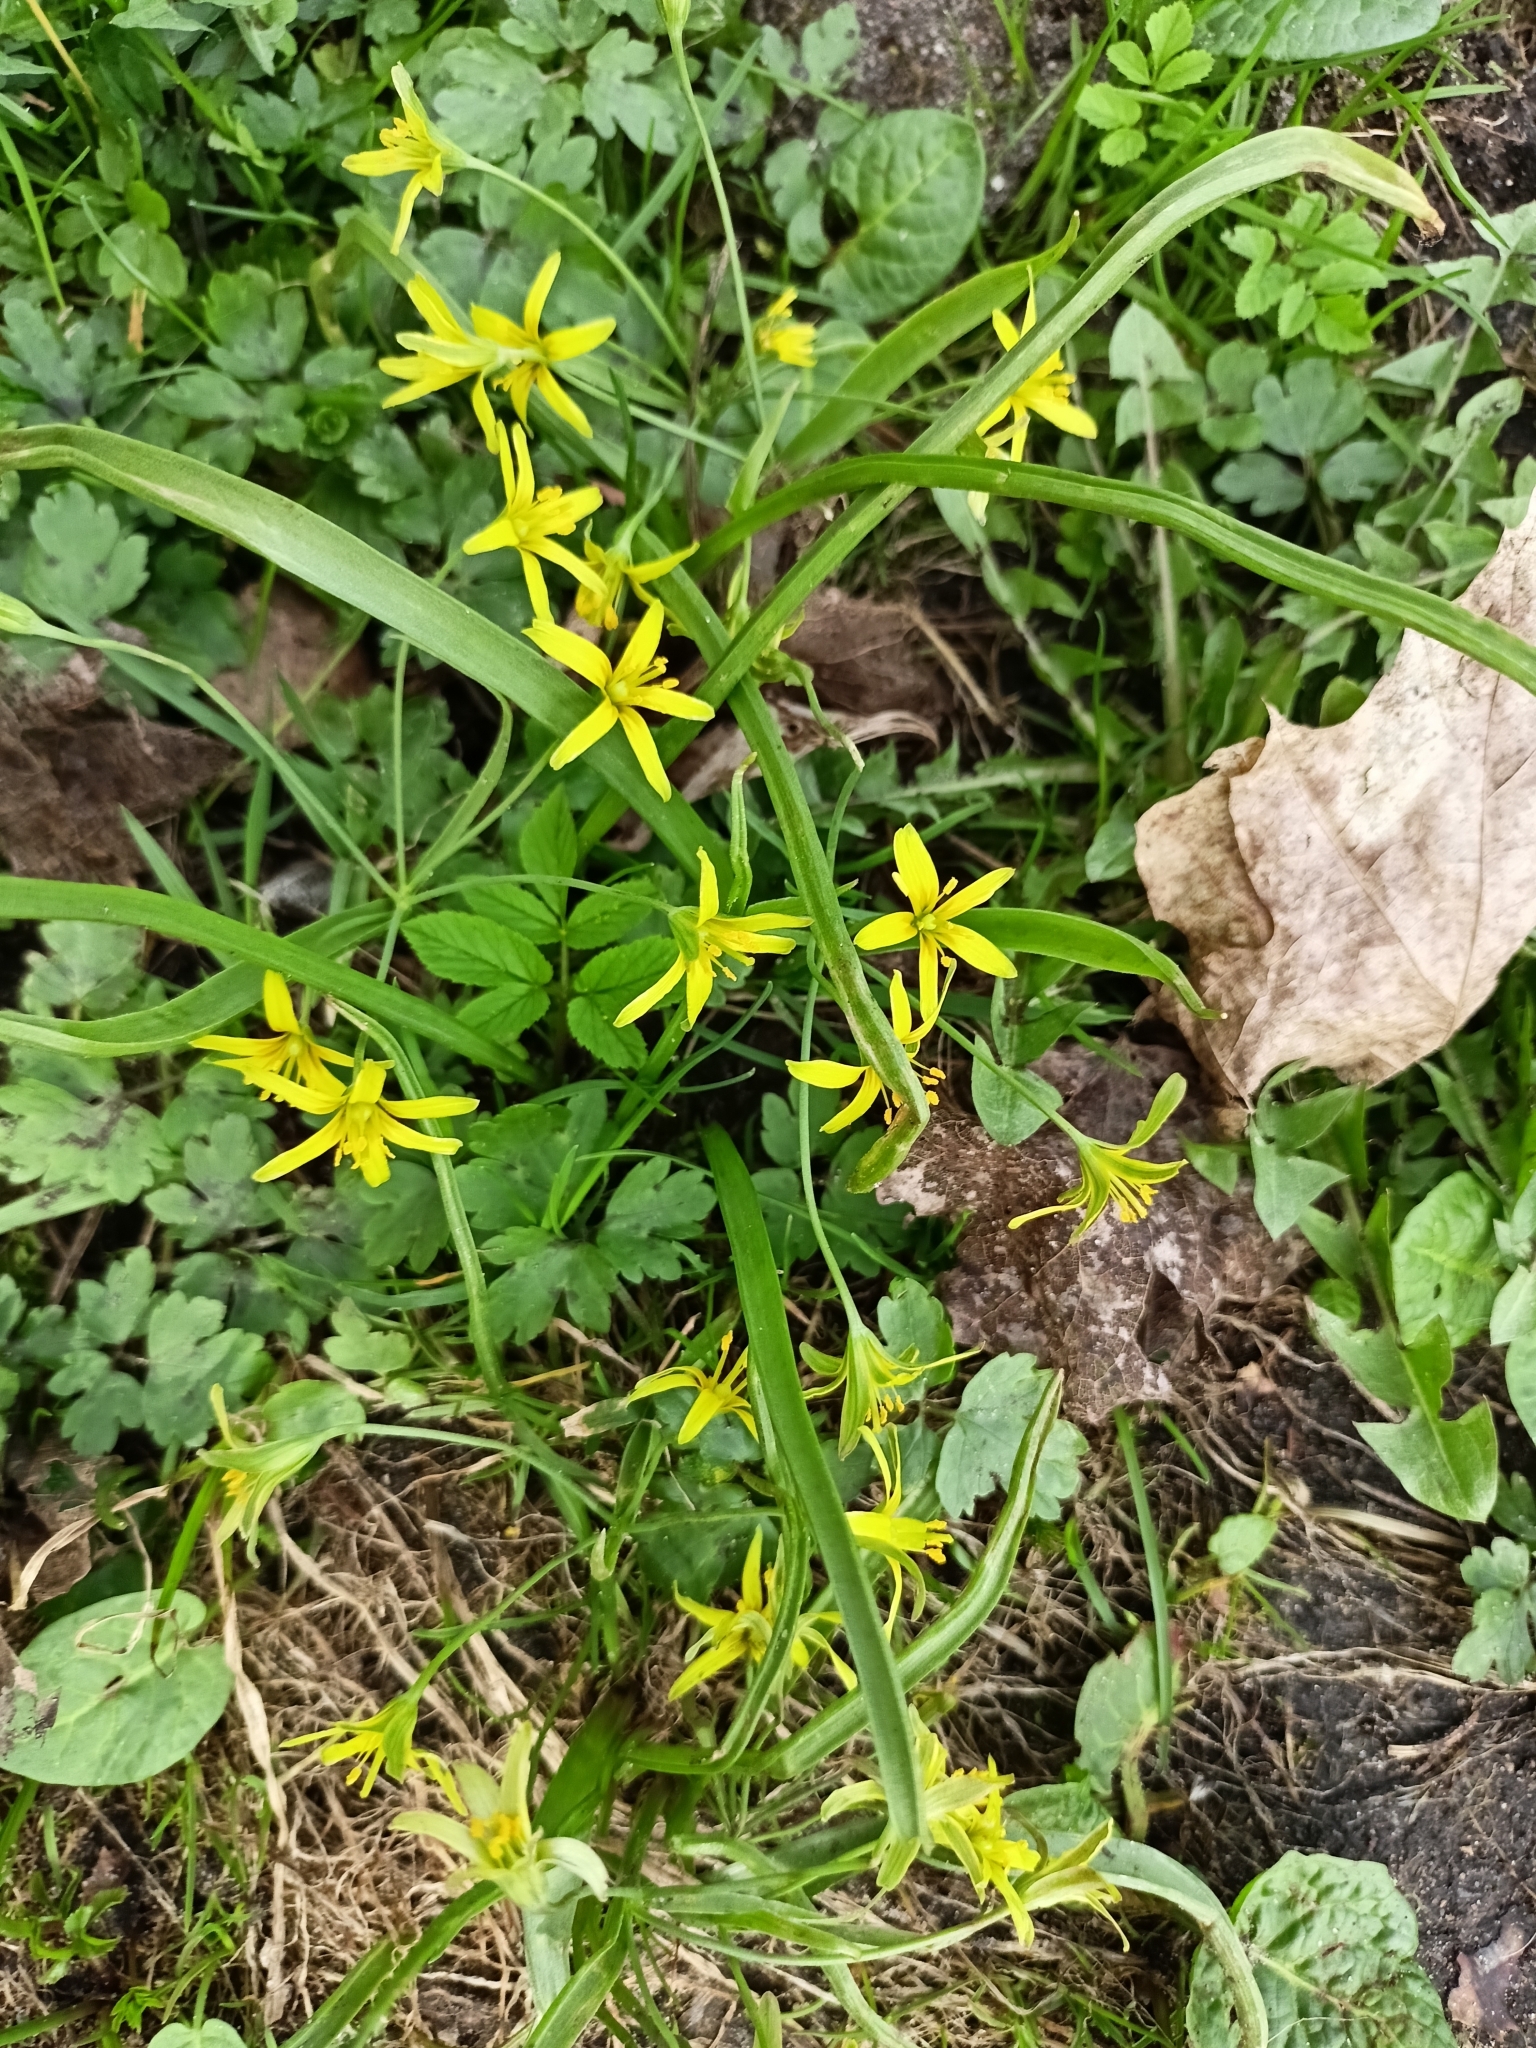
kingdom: Plantae
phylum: Tracheophyta
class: Liliopsida
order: Liliales
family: Liliaceae
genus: Gagea
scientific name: Gagea lutea
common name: Yellow star-of-bethlehem
